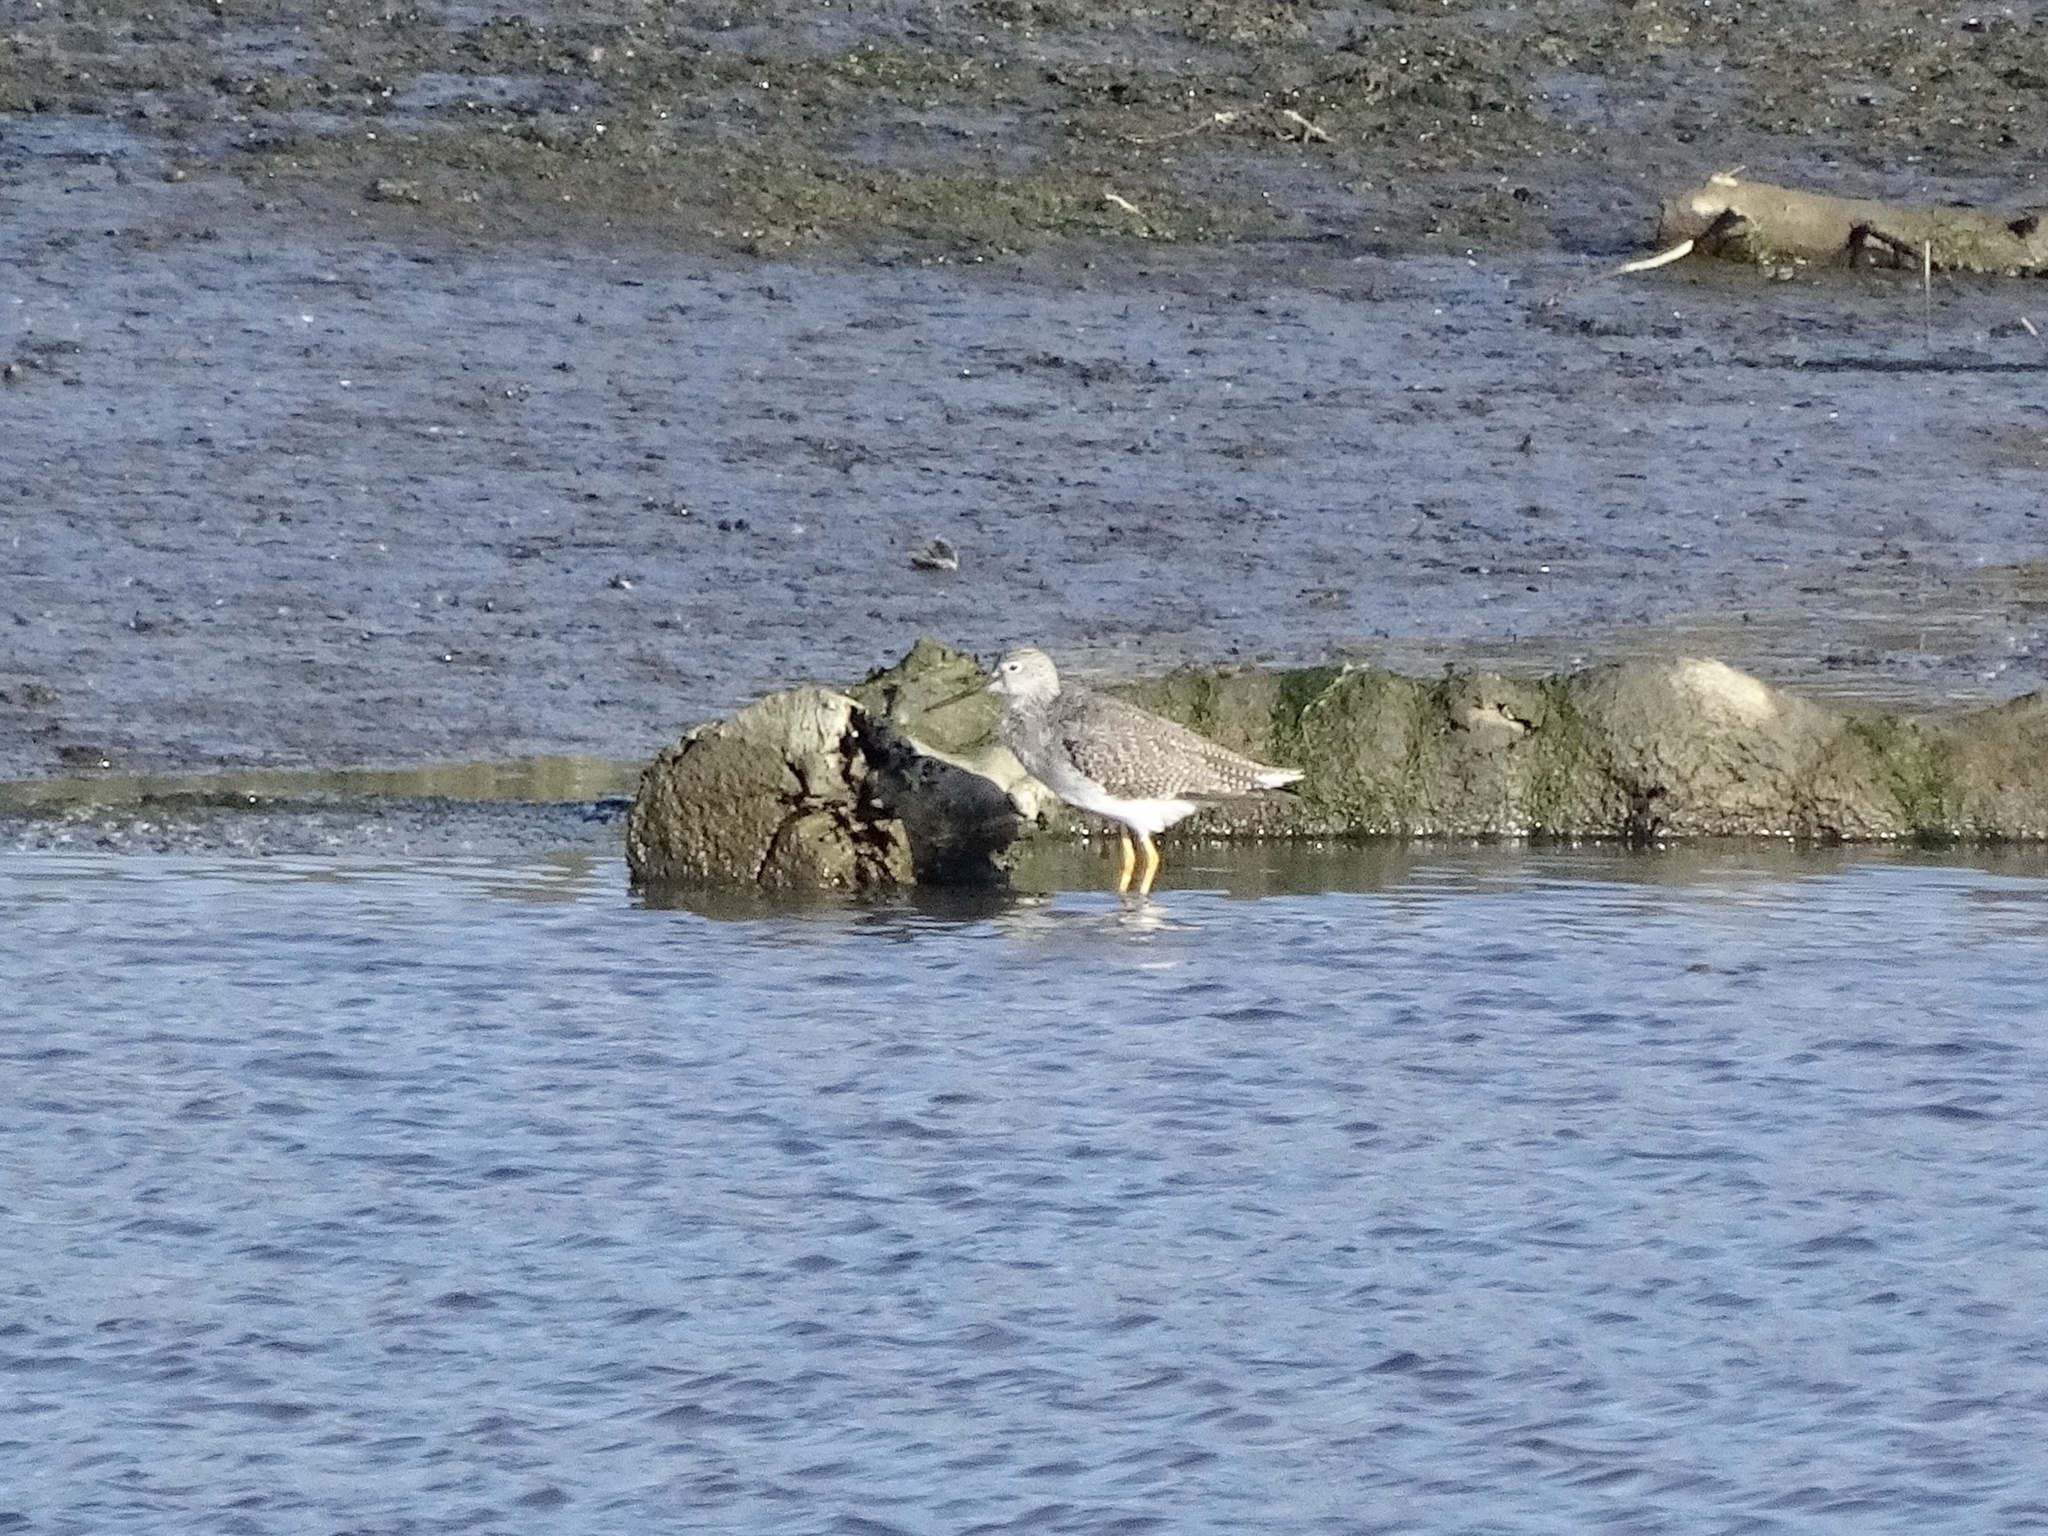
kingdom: Animalia
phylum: Chordata
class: Aves
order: Charadriiformes
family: Scolopacidae
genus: Tringa
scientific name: Tringa melanoleuca
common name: Greater yellowlegs
